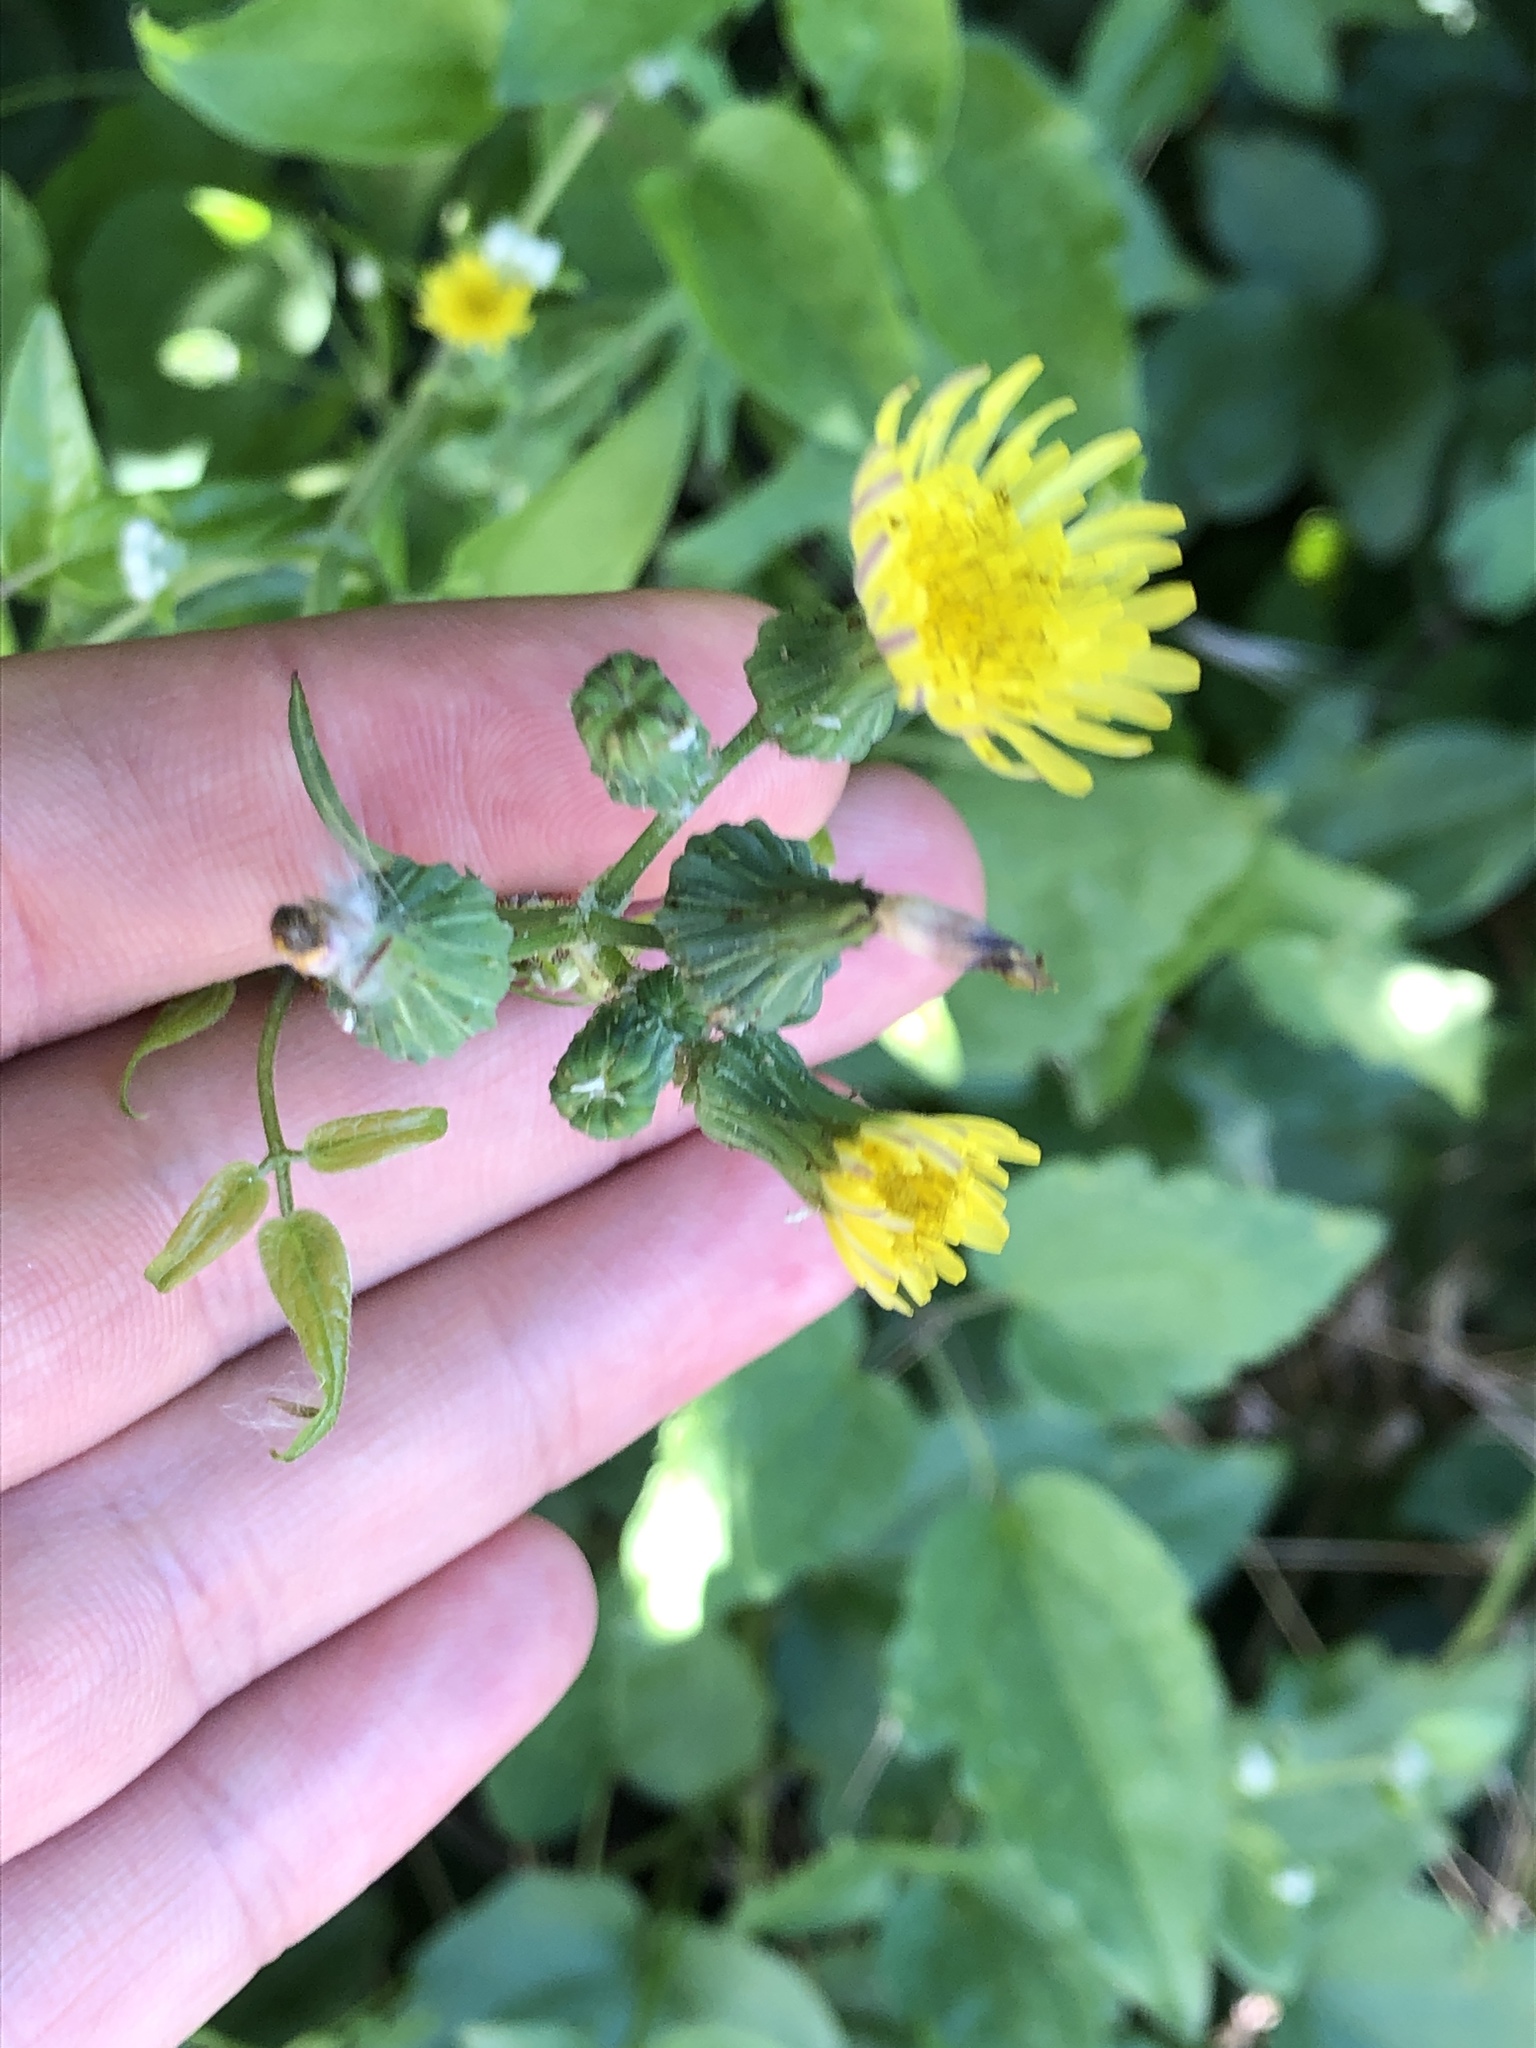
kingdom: Plantae
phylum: Tracheophyta
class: Magnoliopsida
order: Asterales
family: Asteraceae
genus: Sonchus
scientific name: Sonchus oleraceus
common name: Common sowthistle
